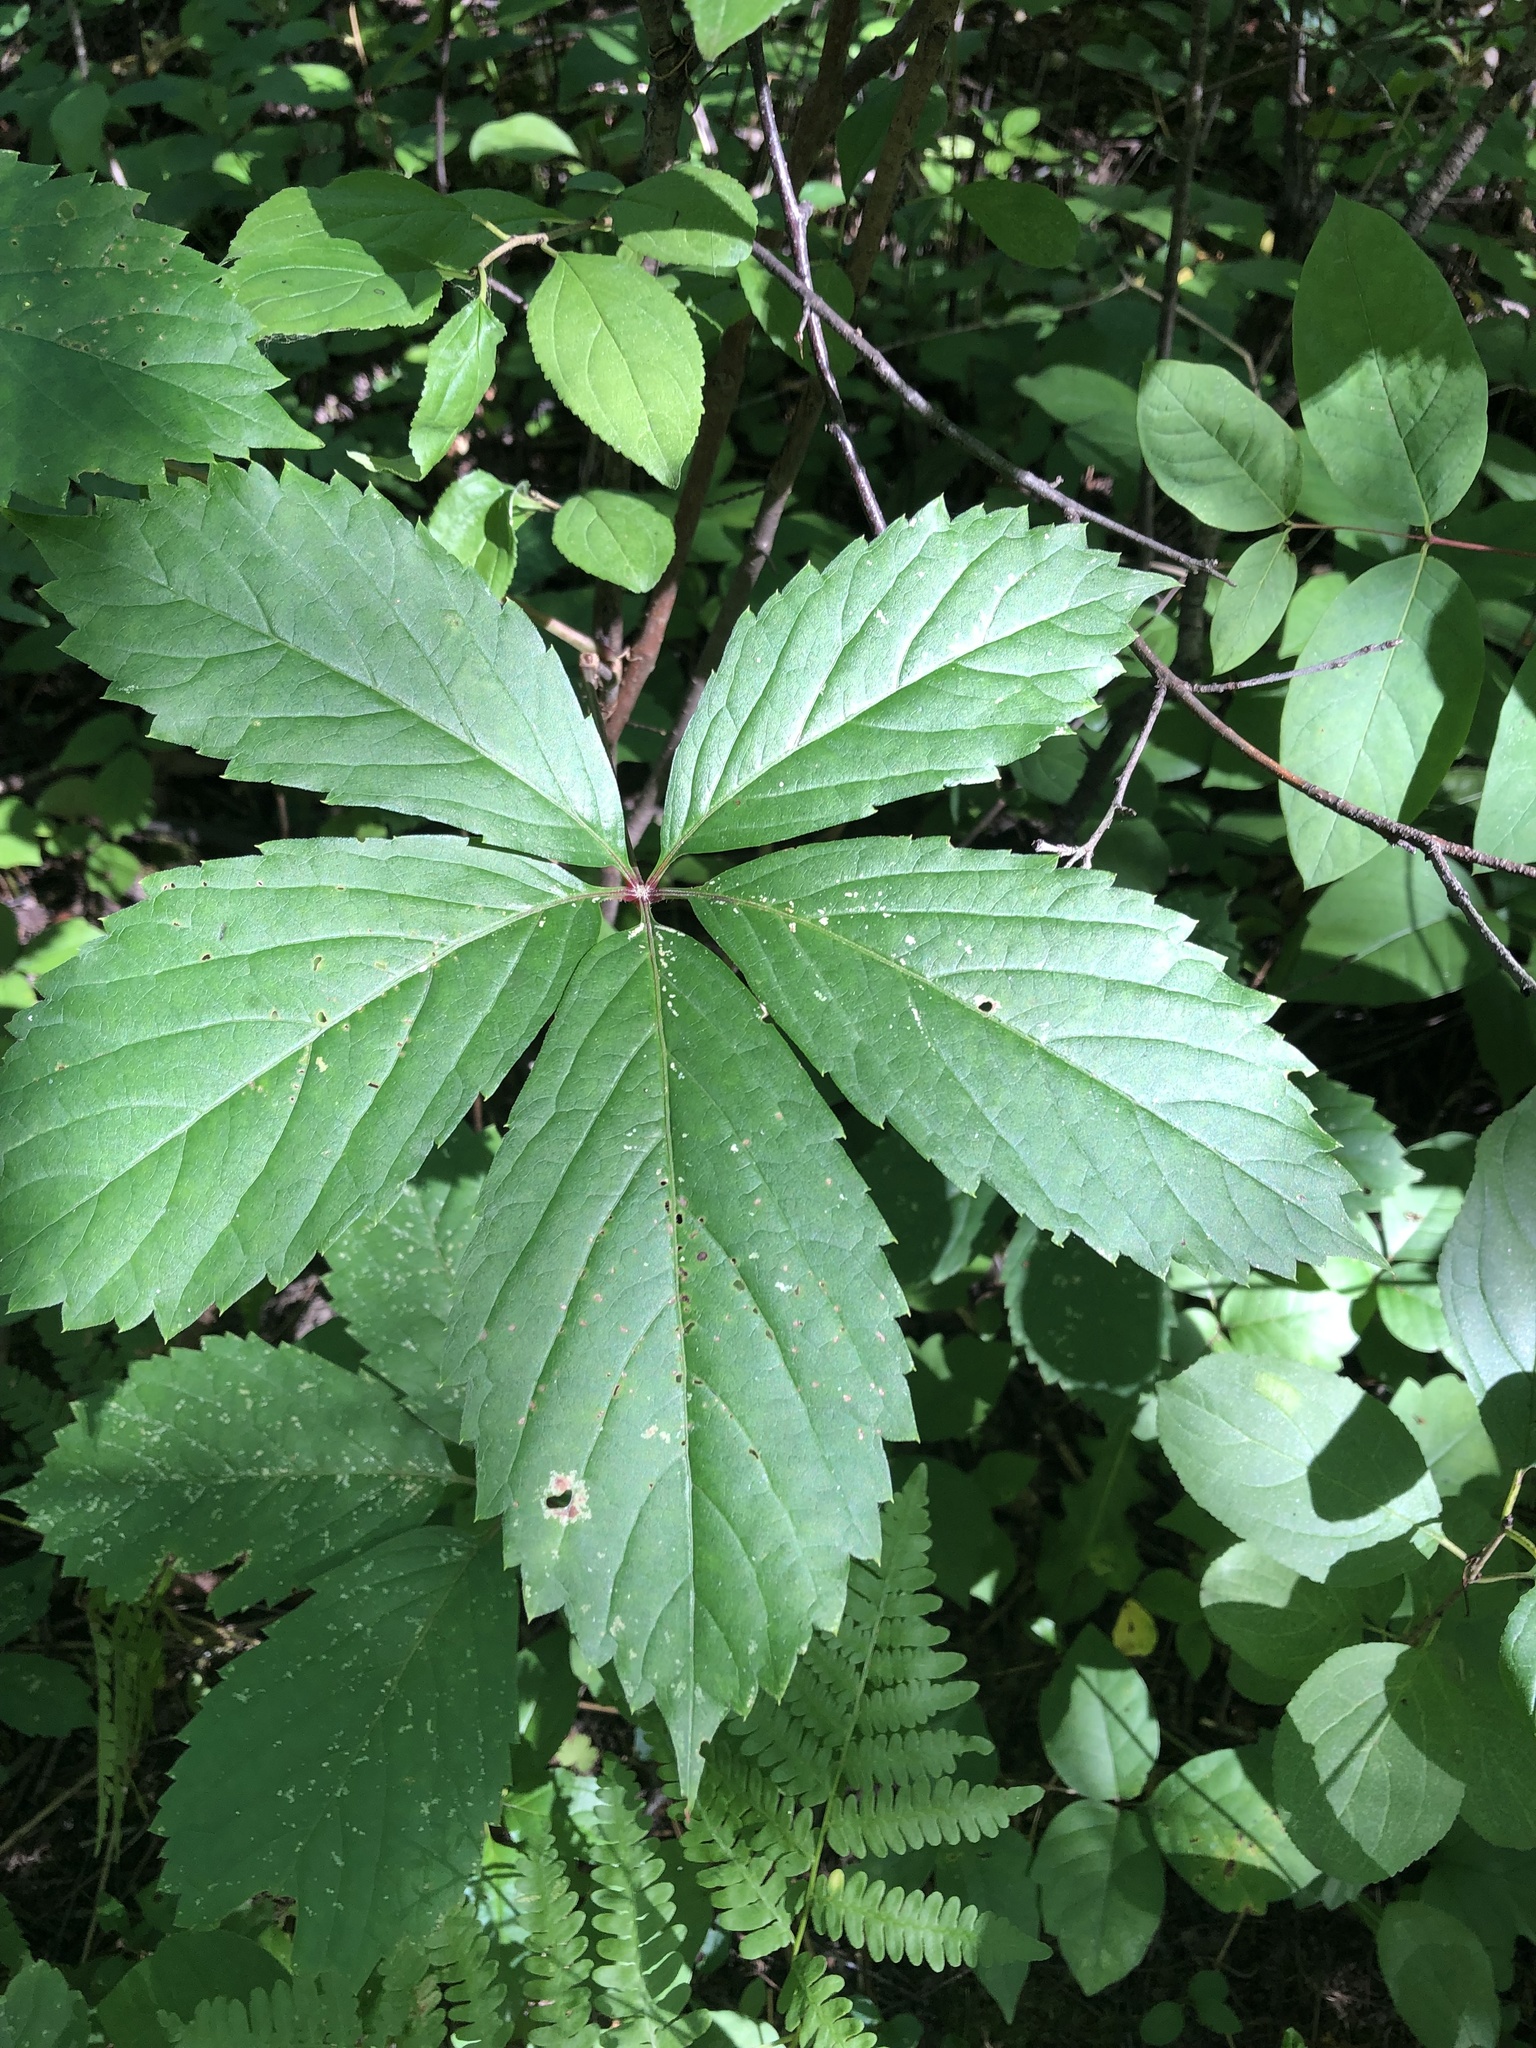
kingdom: Plantae
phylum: Tracheophyta
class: Magnoliopsida
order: Vitales
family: Vitaceae
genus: Parthenocissus
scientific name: Parthenocissus inserta
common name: False virginia-creeper
